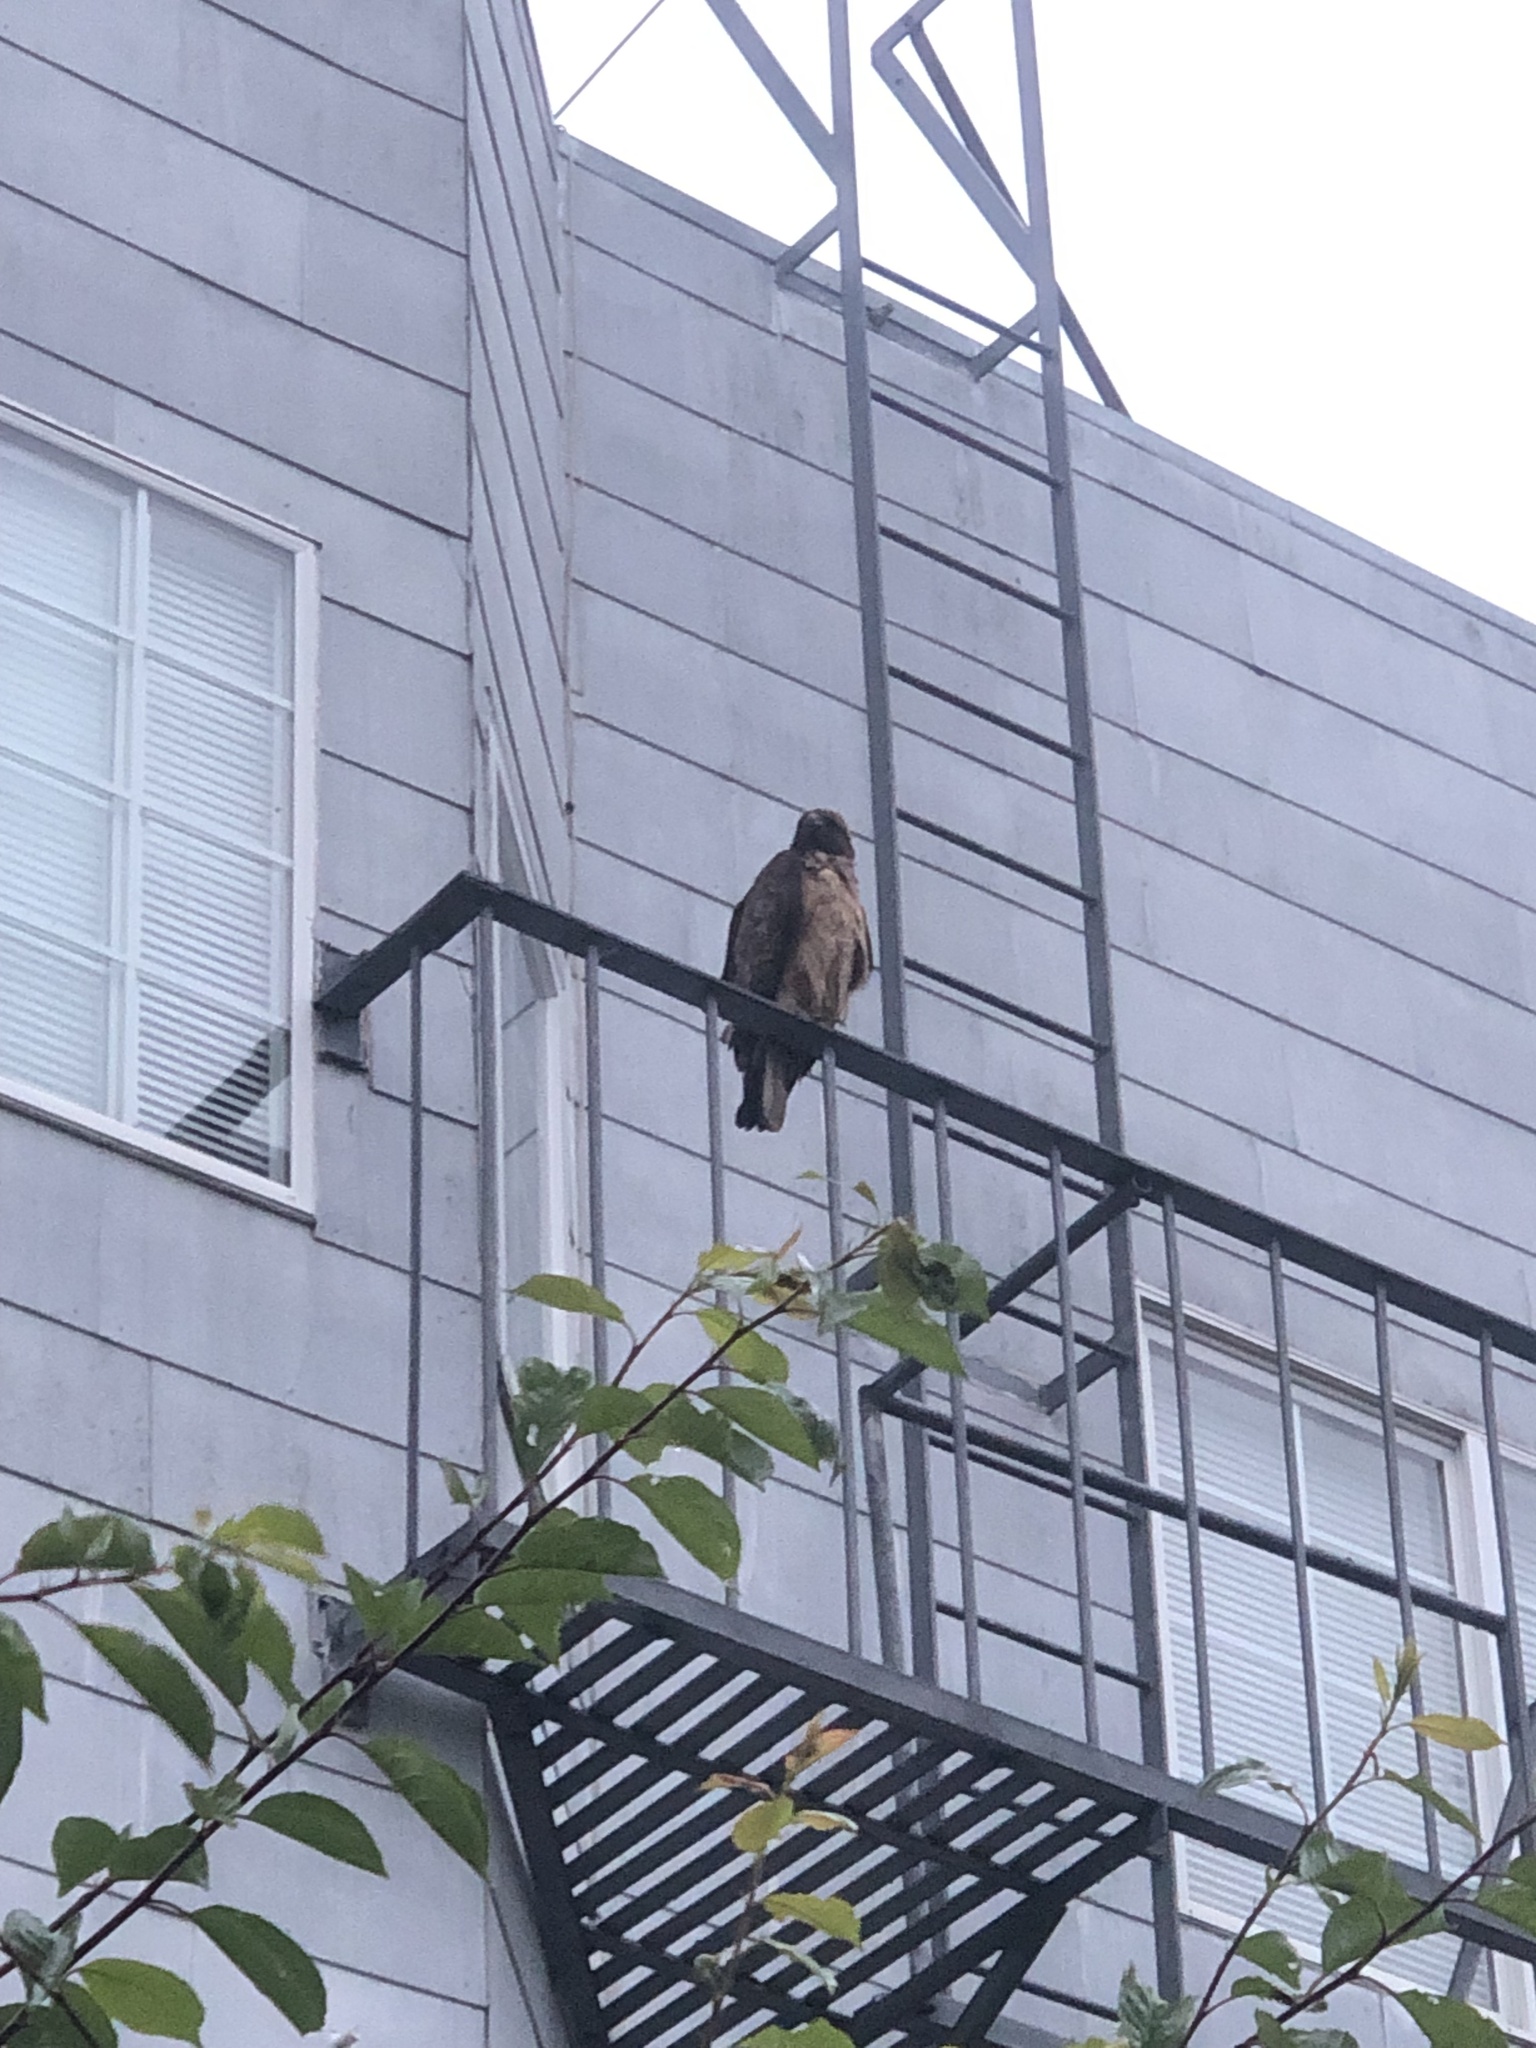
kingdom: Animalia
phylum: Chordata
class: Aves
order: Accipitriformes
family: Accipitridae
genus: Buteo
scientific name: Buteo jamaicensis
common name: Red-tailed hawk
